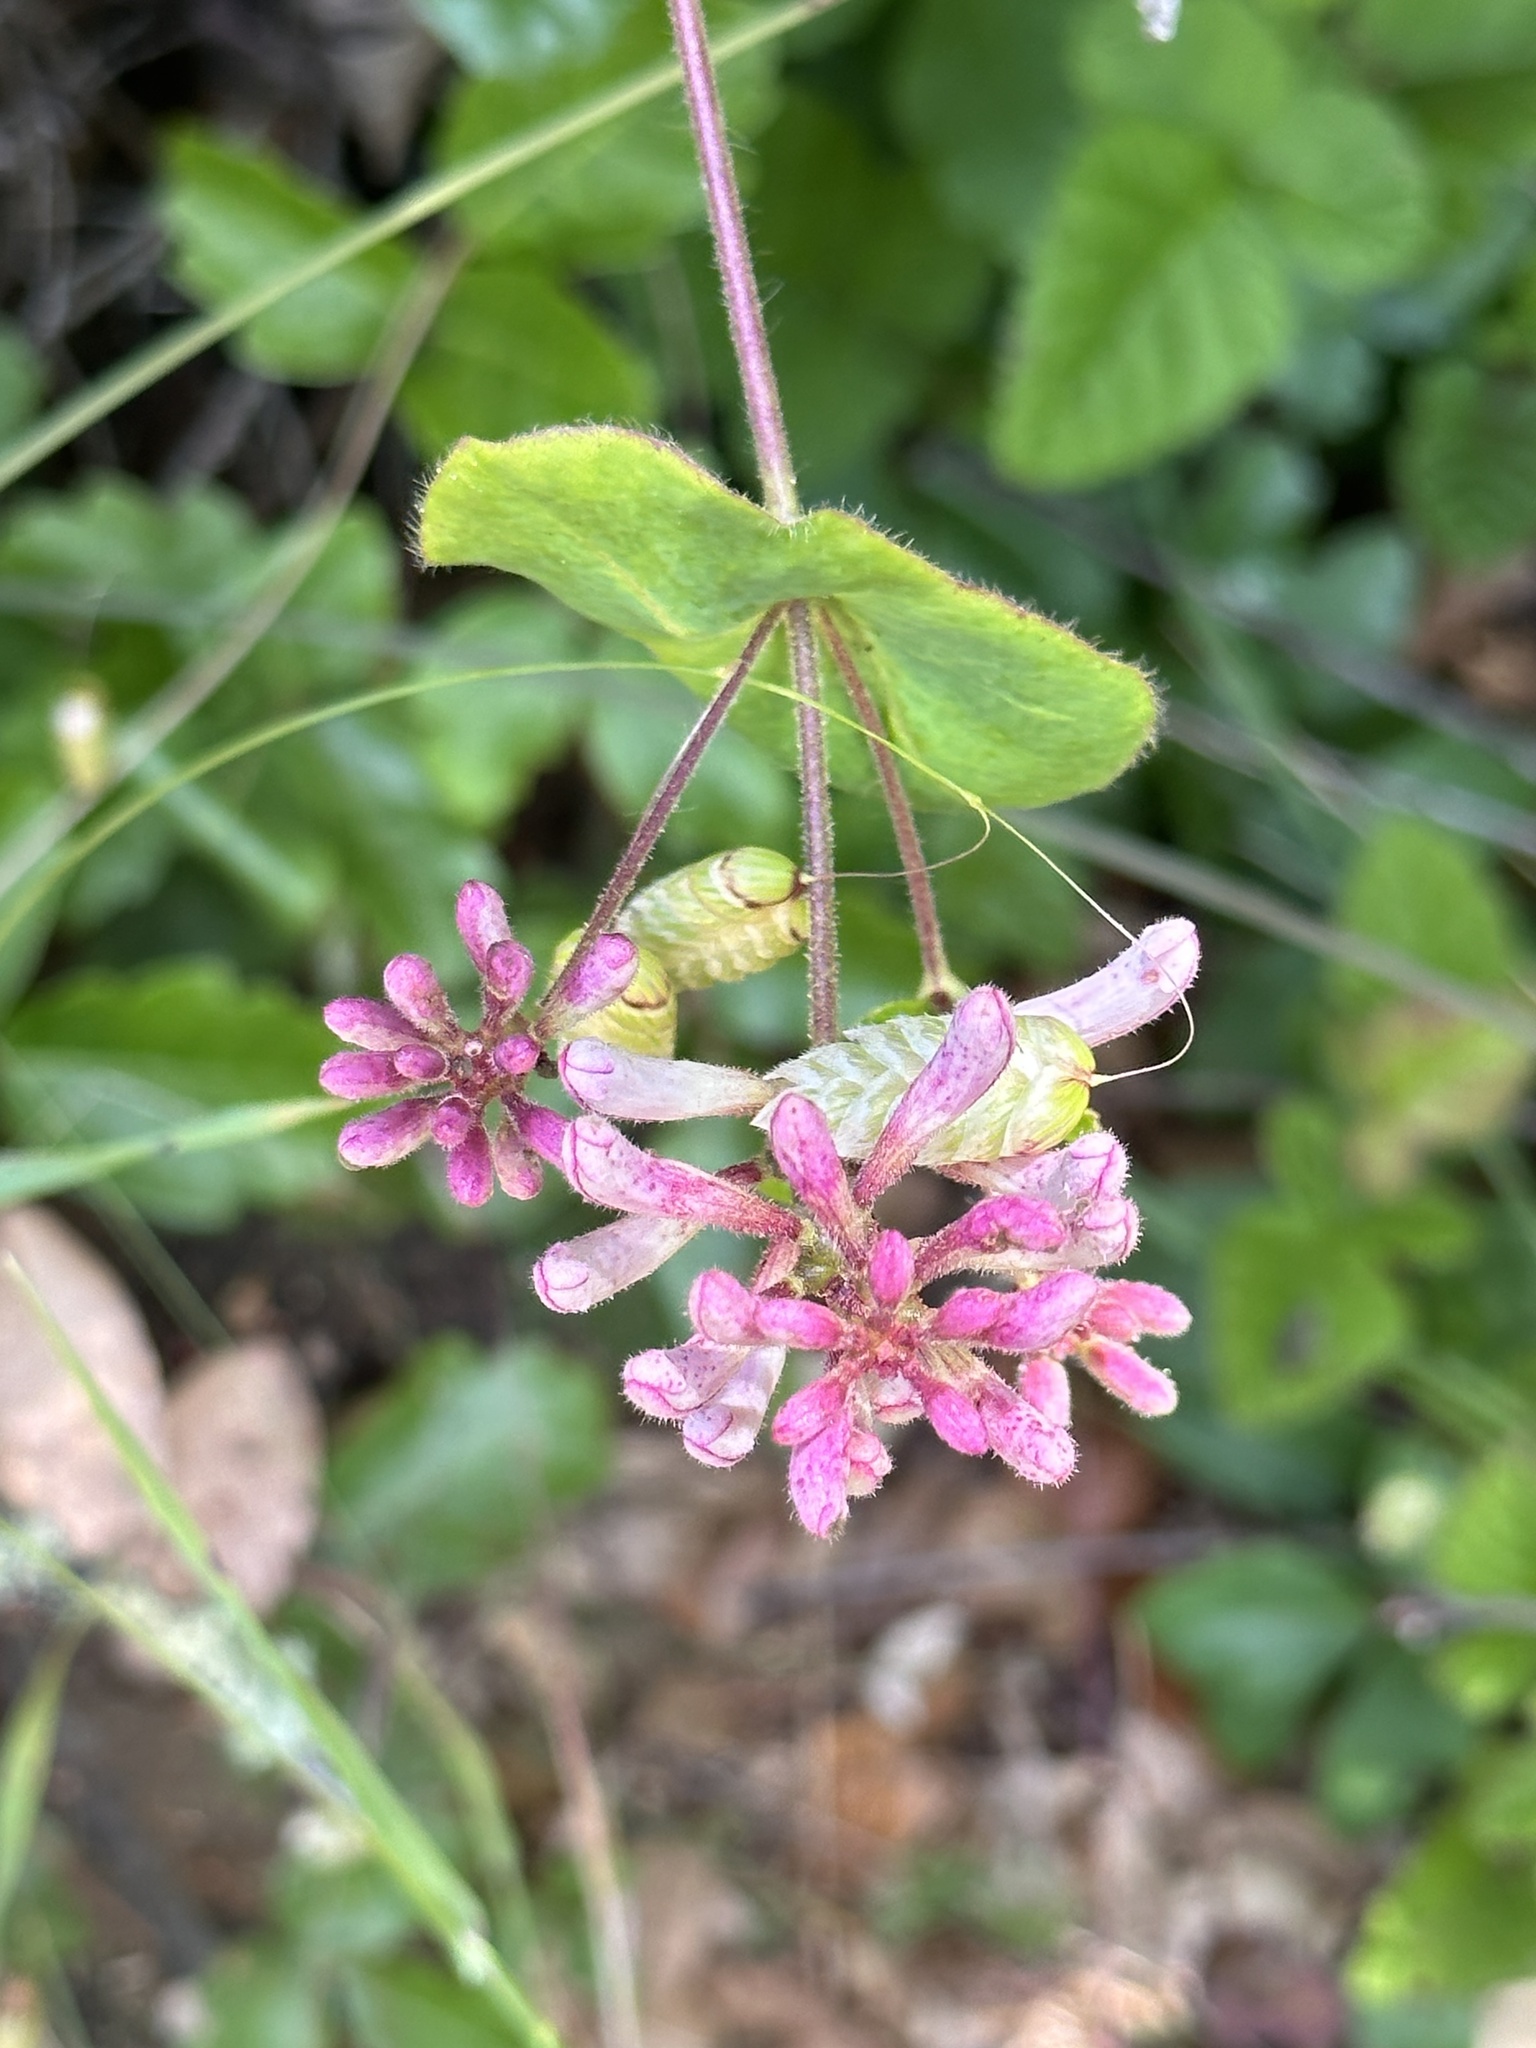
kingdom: Plantae
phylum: Tracheophyta
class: Magnoliopsida
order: Dipsacales
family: Caprifoliaceae
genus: Lonicera
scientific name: Lonicera hispidula
